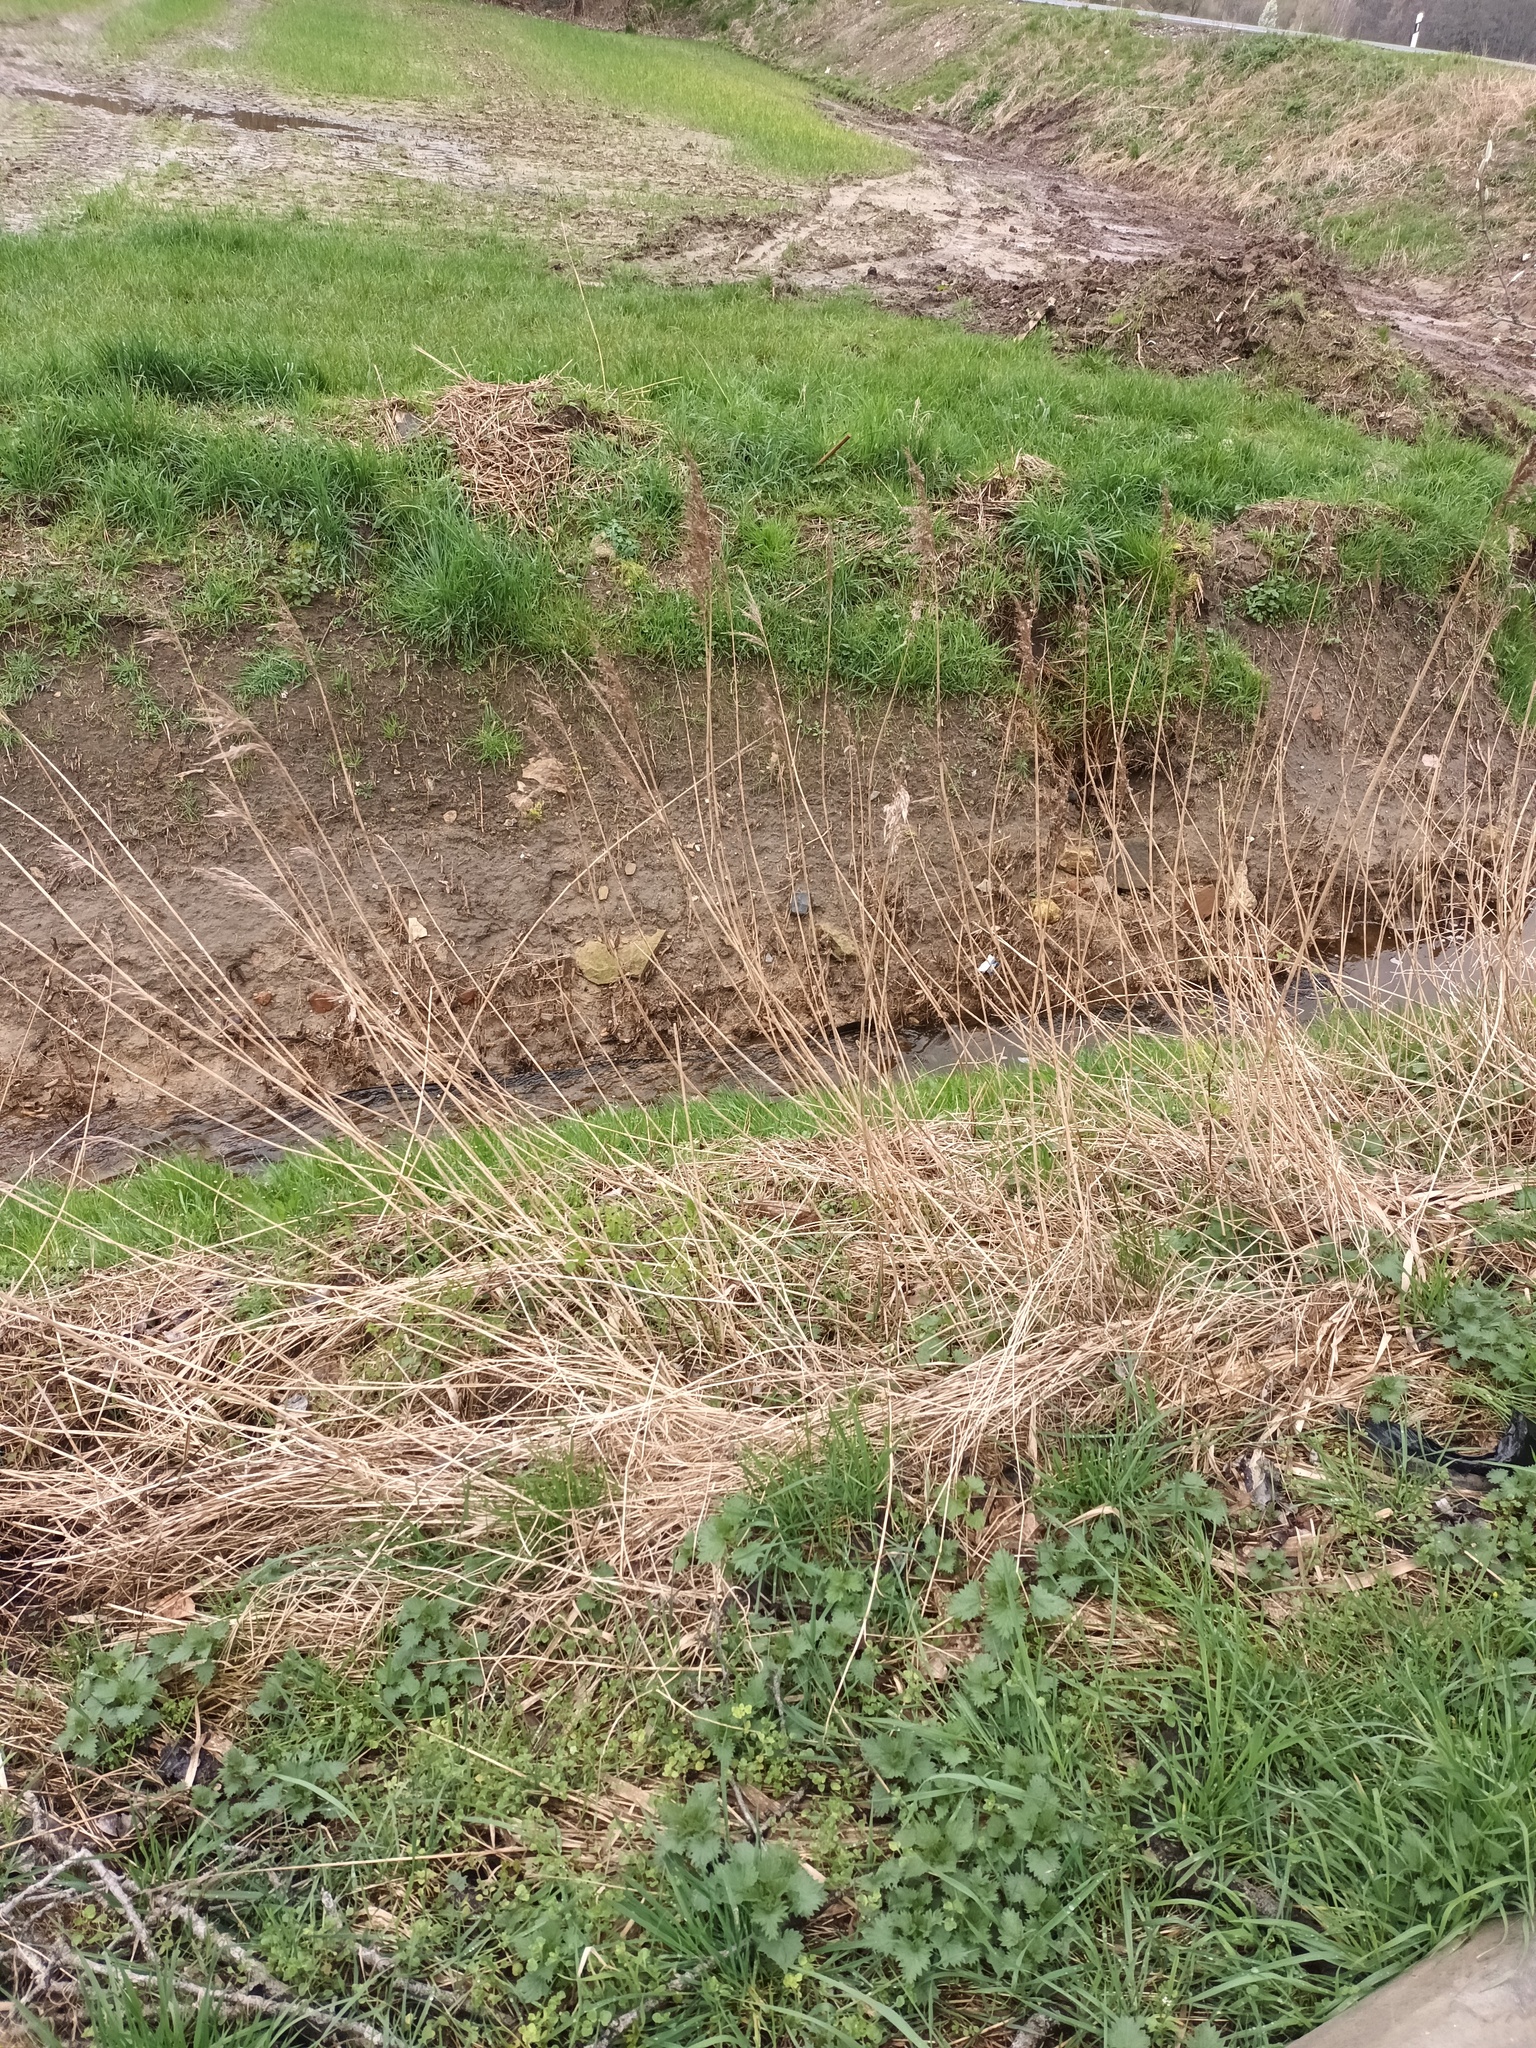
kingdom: Plantae
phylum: Tracheophyta
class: Liliopsida
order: Poales
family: Poaceae
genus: Phragmites
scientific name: Phragmites australis
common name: Common reed
